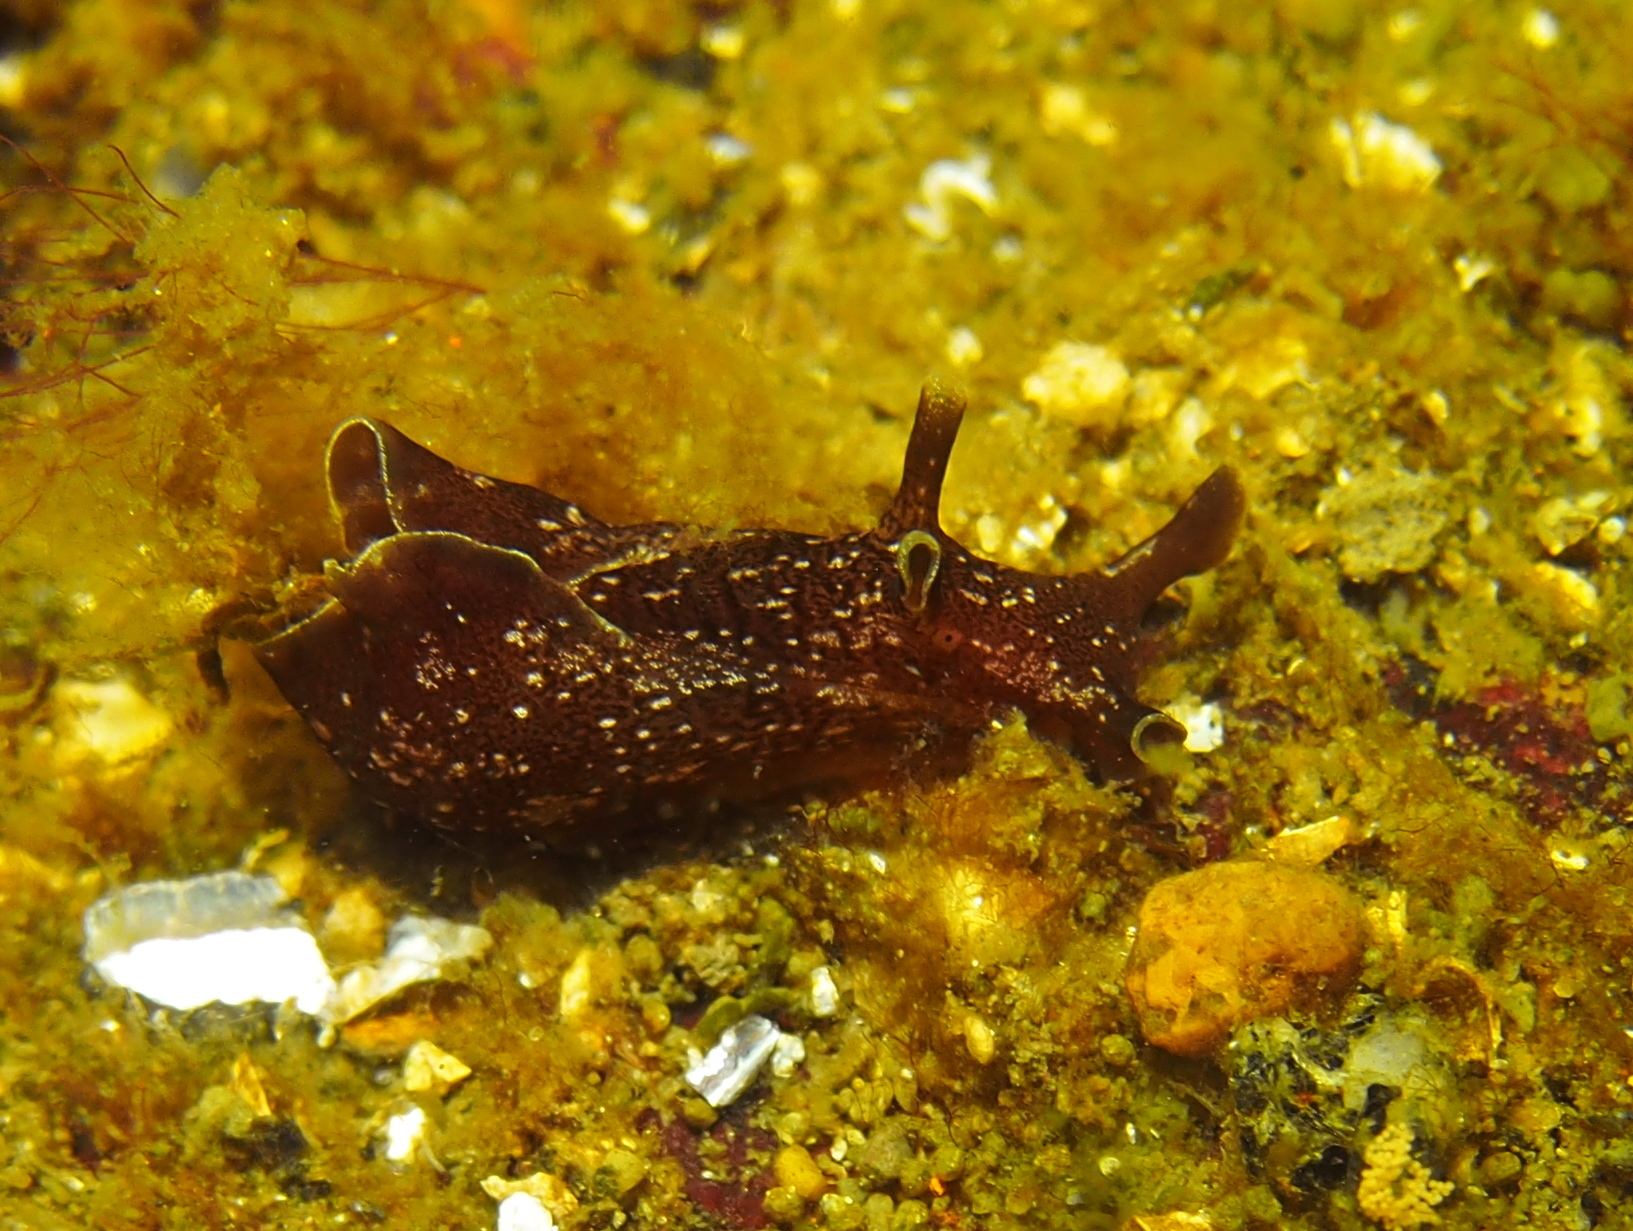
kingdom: Animalia
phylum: Mollusca
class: Gastropoda
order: Aplysiida
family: Aplysiidae
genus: Aplysia
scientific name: Aplysia punctata
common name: Common sea hare
